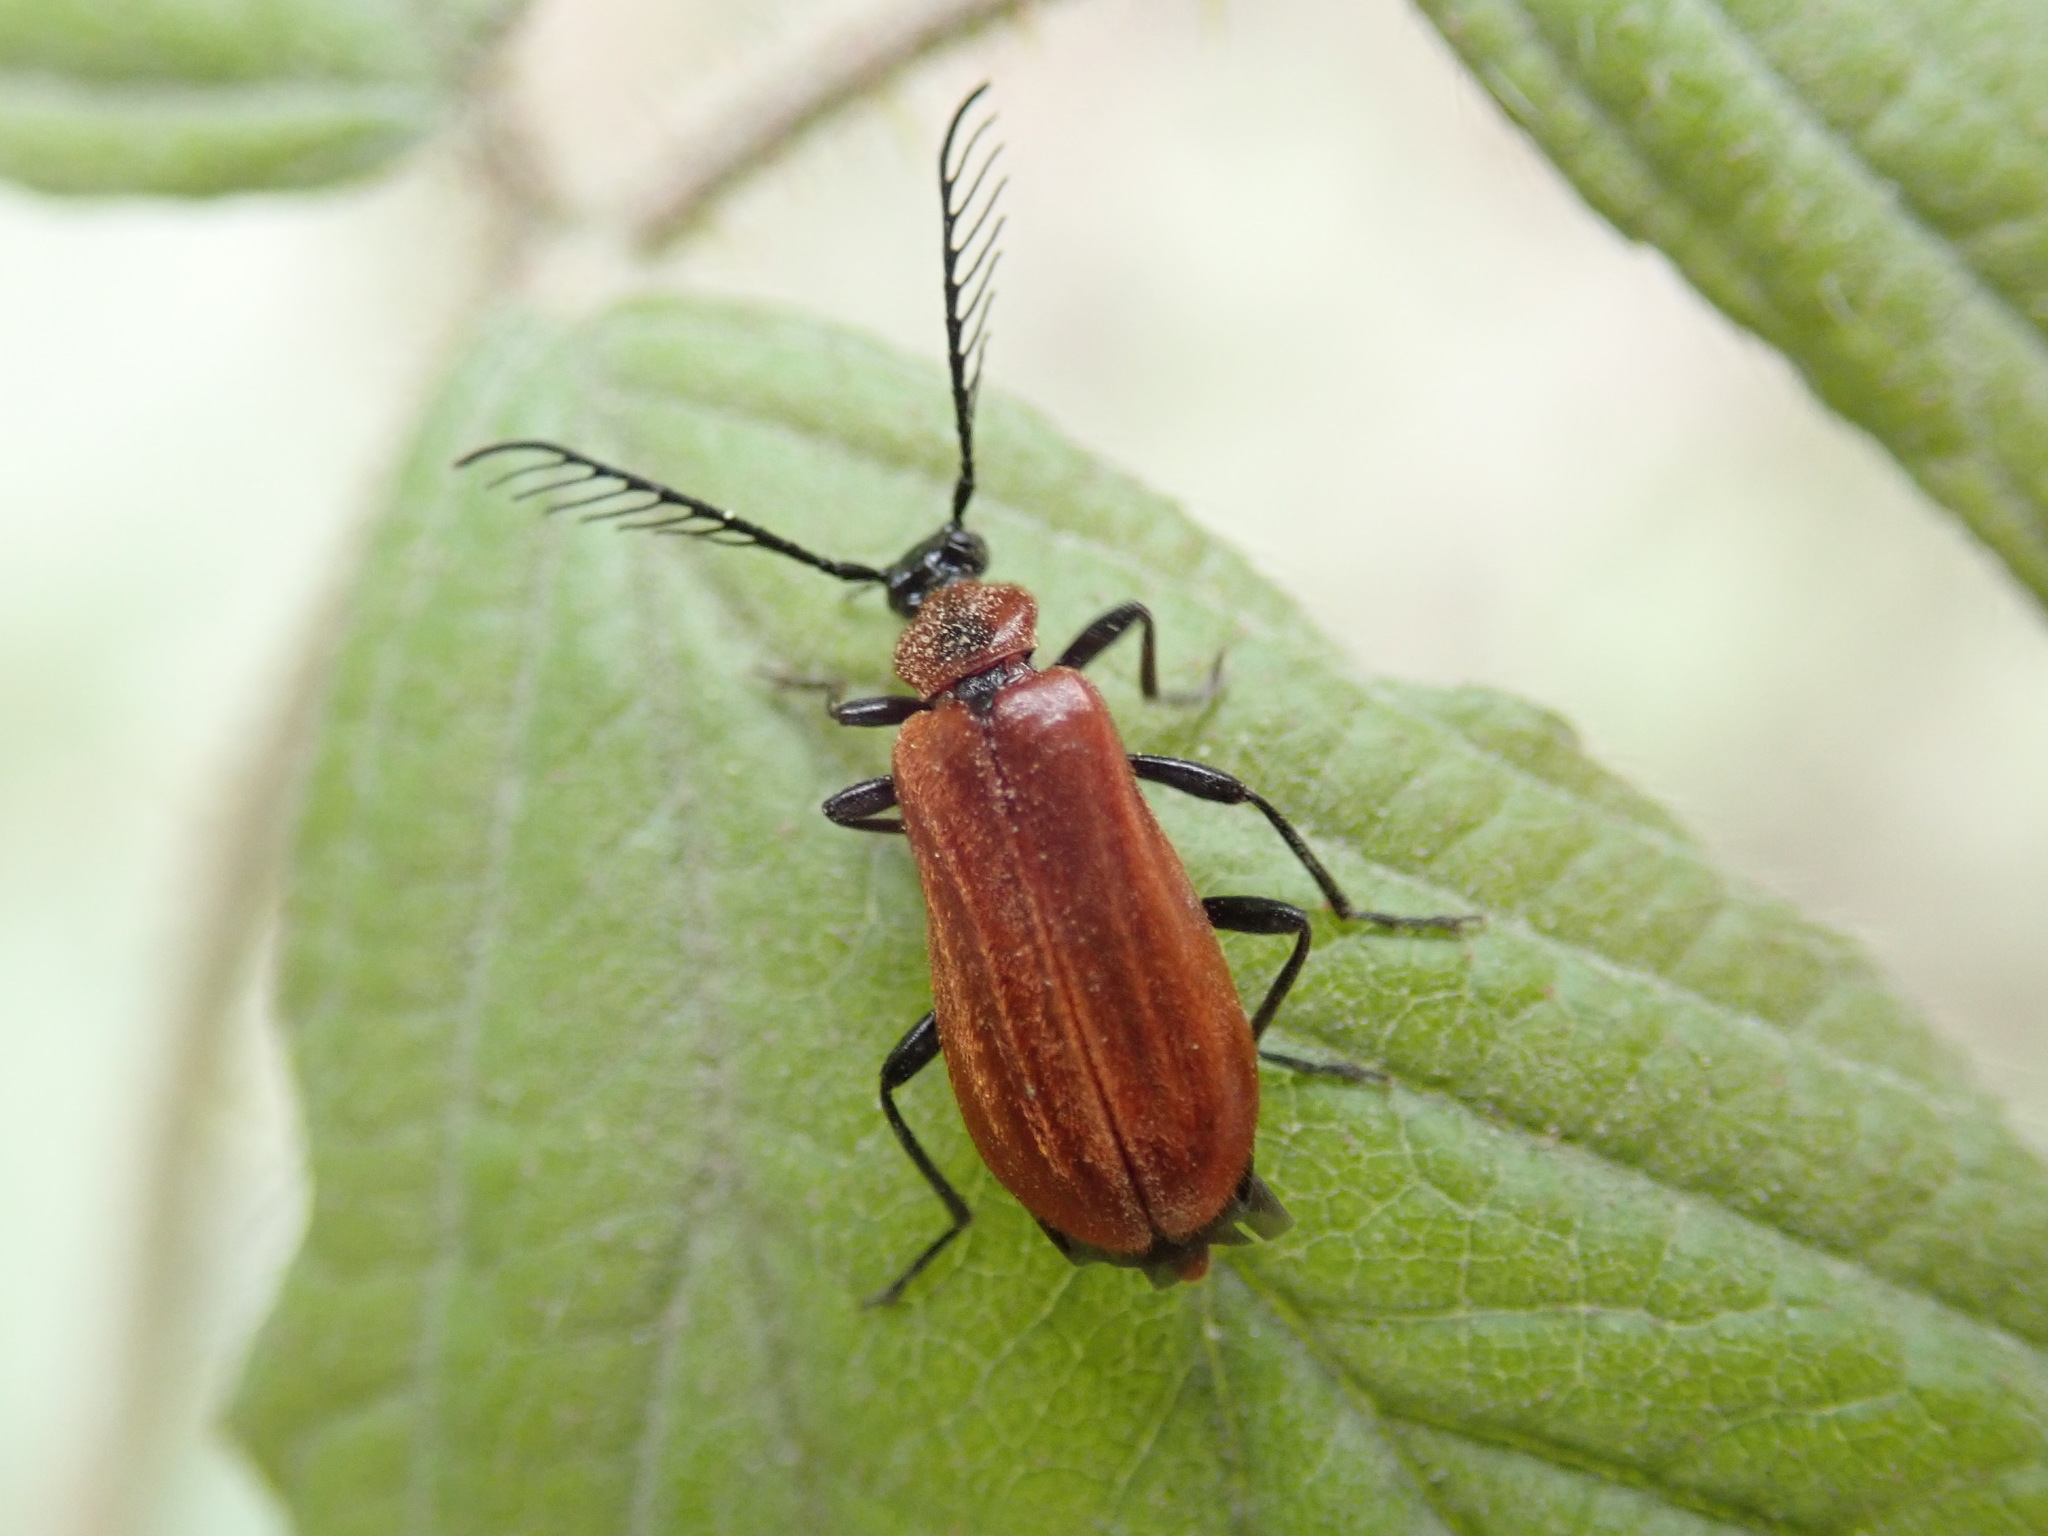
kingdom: Animalia
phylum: Arthropoda
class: Insecta
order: Coleoptera
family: Pyrochroidae
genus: Schizotus
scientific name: Schizotus pectinicornis
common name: Scarce cardinal beetle
